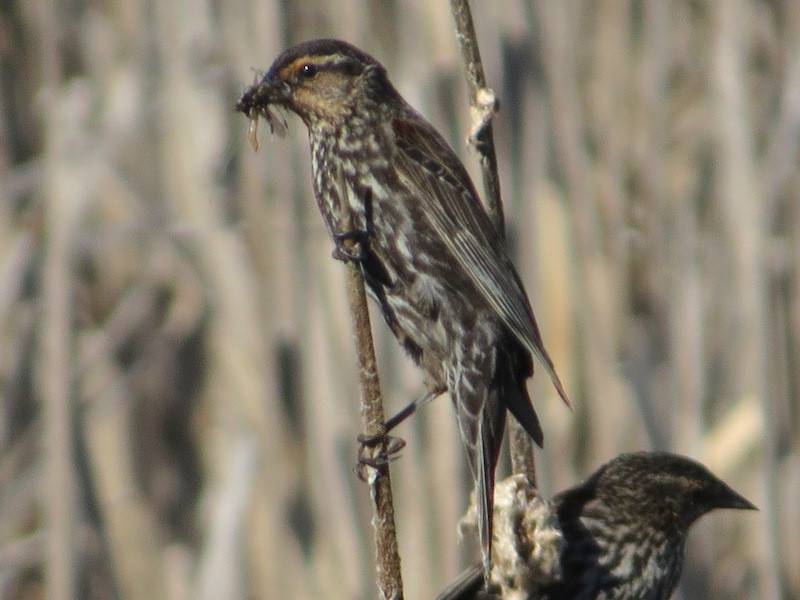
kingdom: Animalia
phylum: Chordata
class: Aves
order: Passeriformes
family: Icteridae
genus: Agelaius
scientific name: Agelaius phoeniceus
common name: Red-winged blackbird
